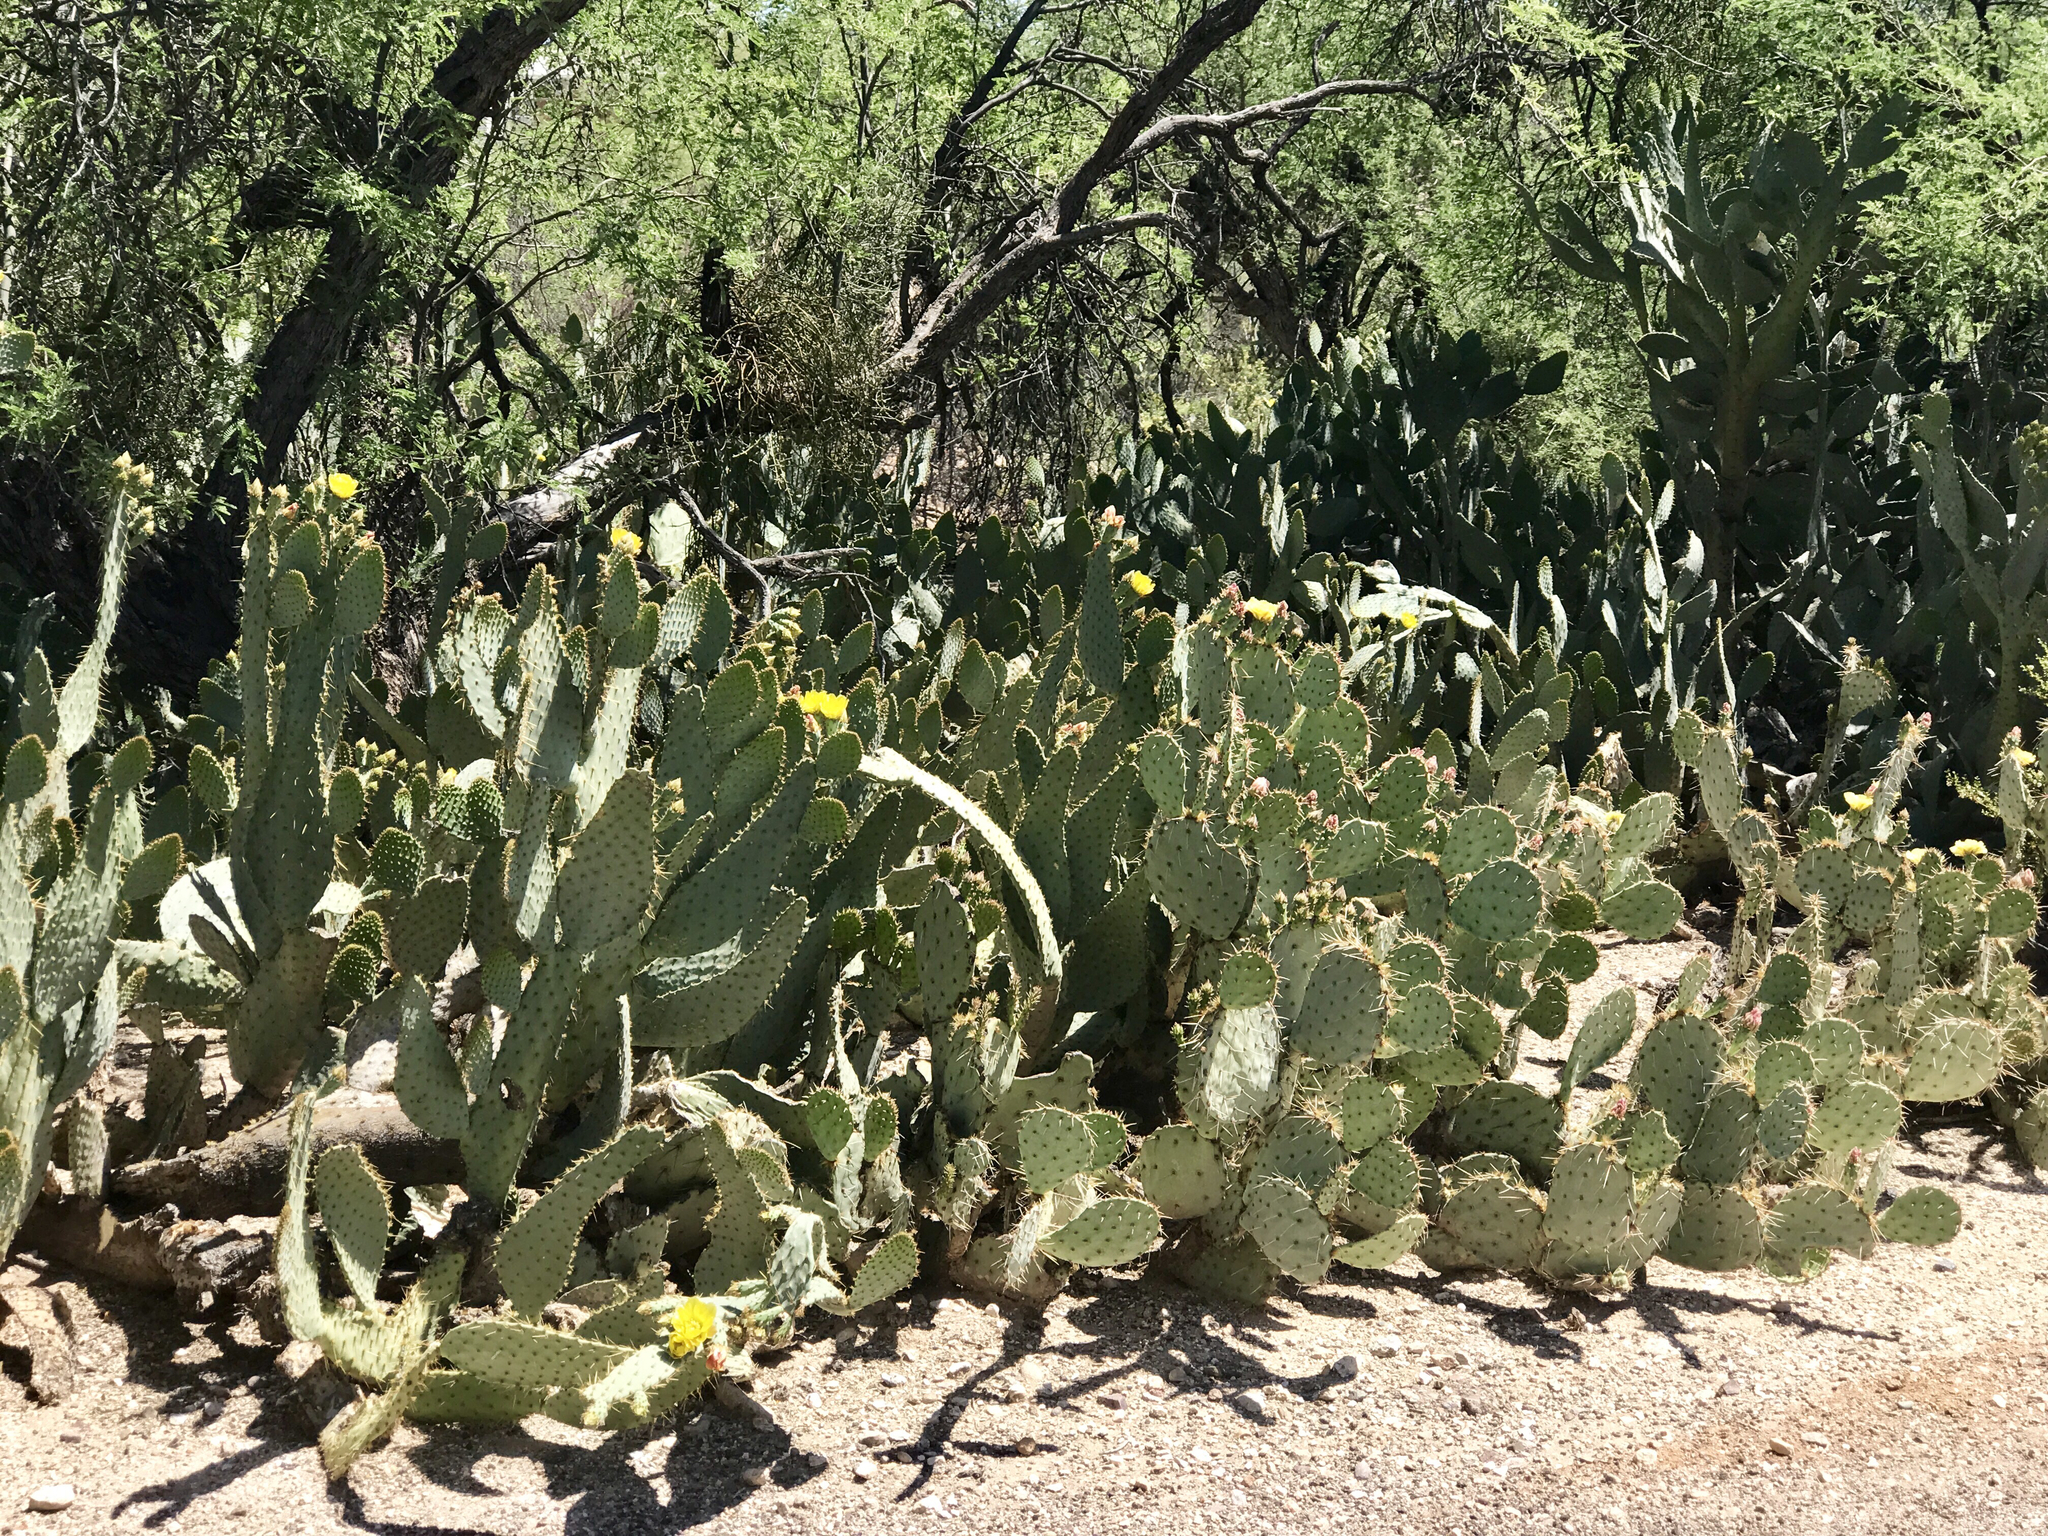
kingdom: Plantae
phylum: Tracheophyta
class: Magnoliopsida
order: Caryophyllales
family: Cactaceae
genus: Opuntia
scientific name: Opuntia engelmannii
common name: Cactus-apple
